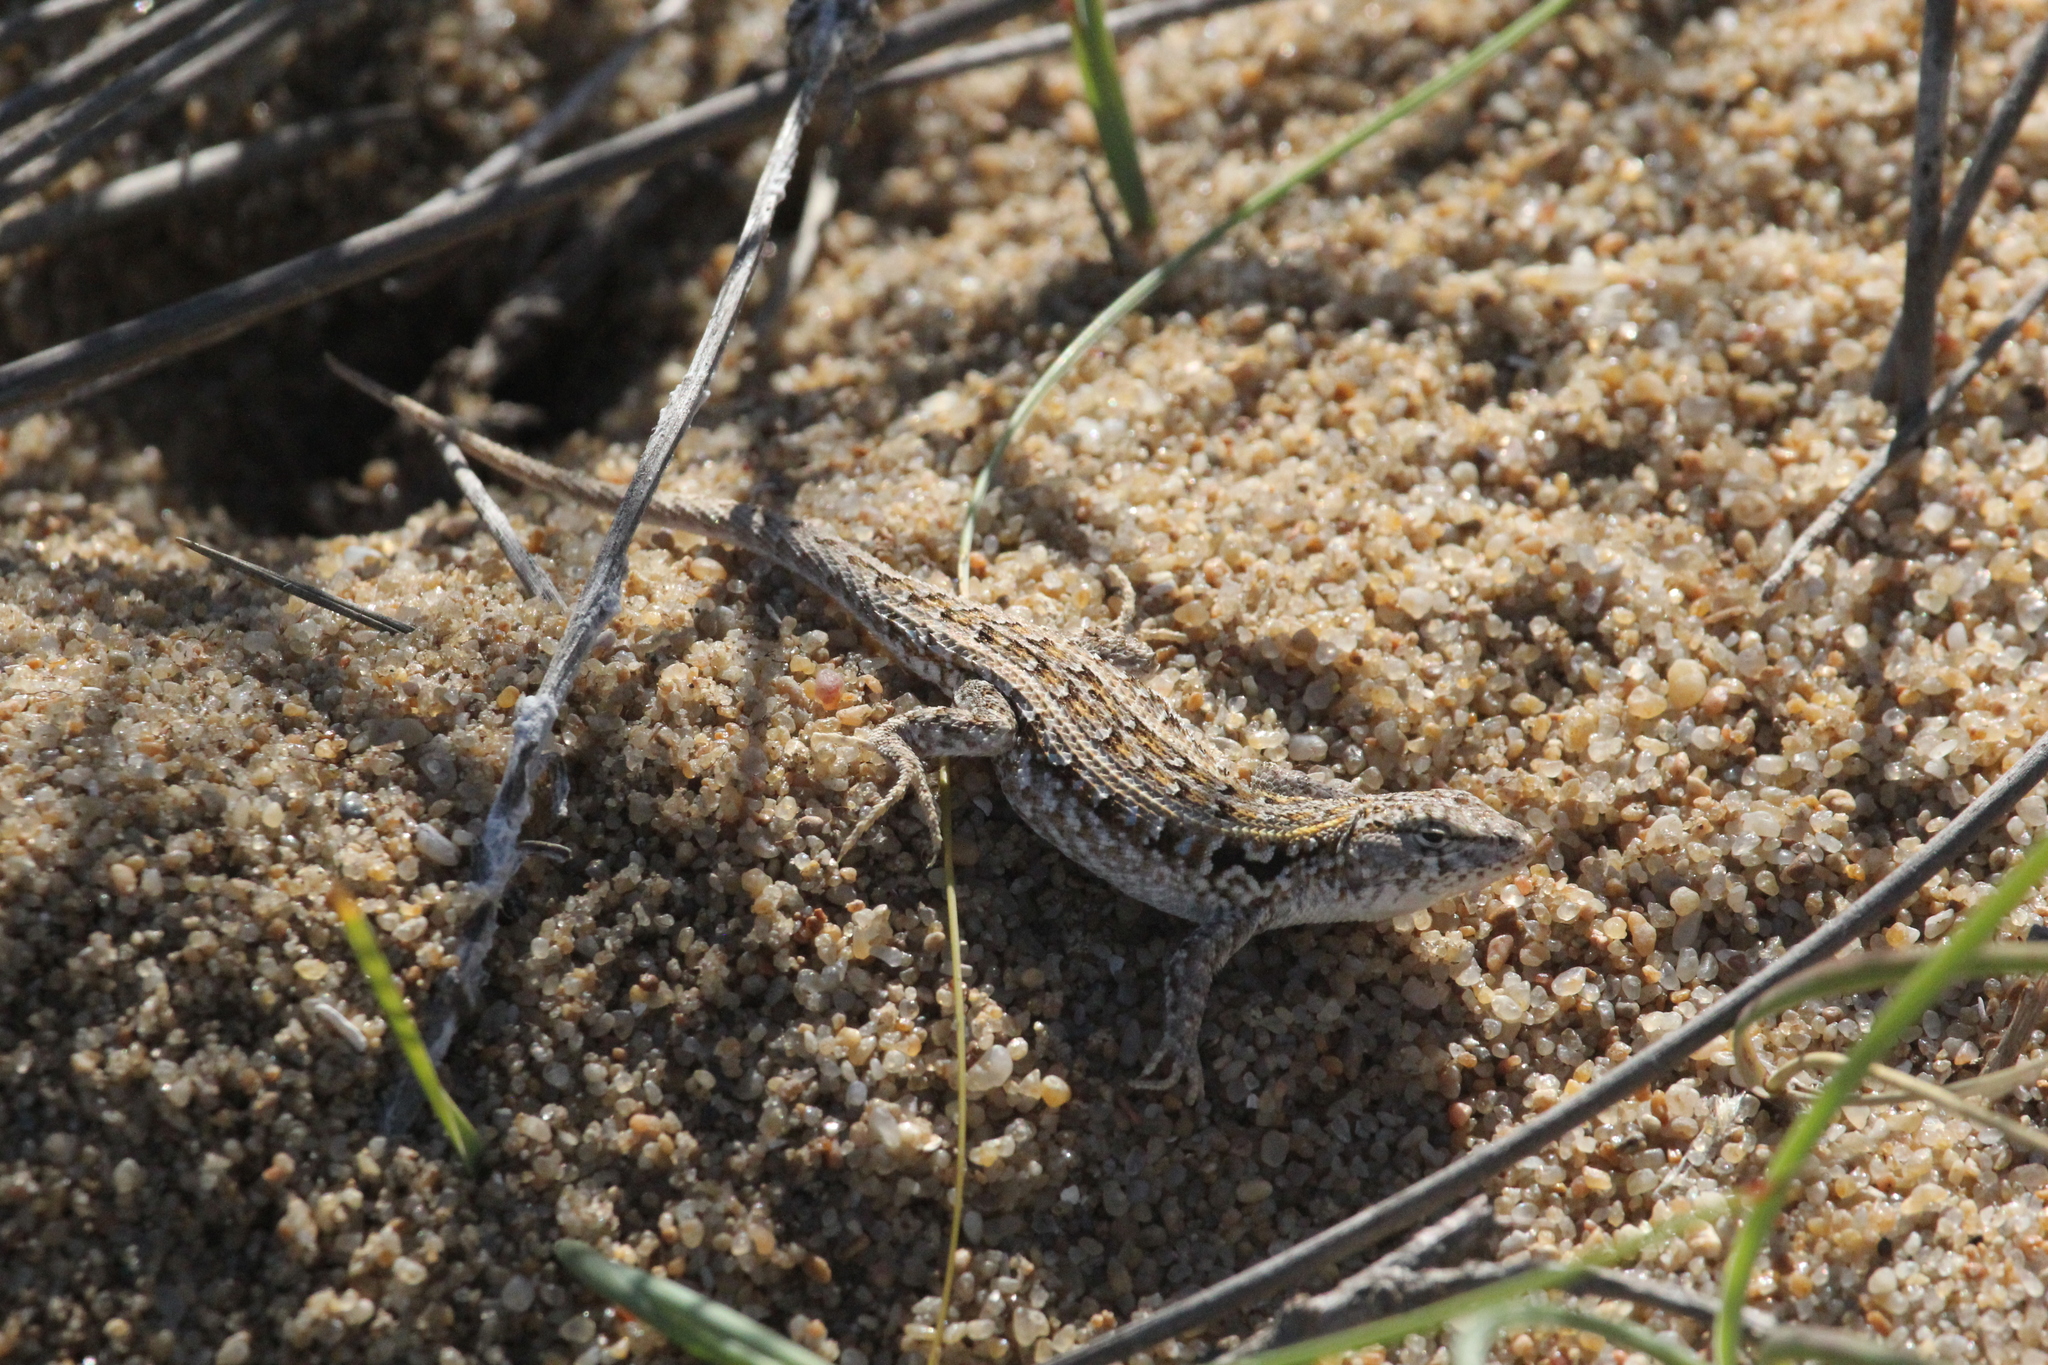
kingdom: Animalia
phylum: Chordata
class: Squamata
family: Liolaemidae
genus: Liolaemus
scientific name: Liolaemus wiegmannii
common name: Wiegmann's tree iguana
